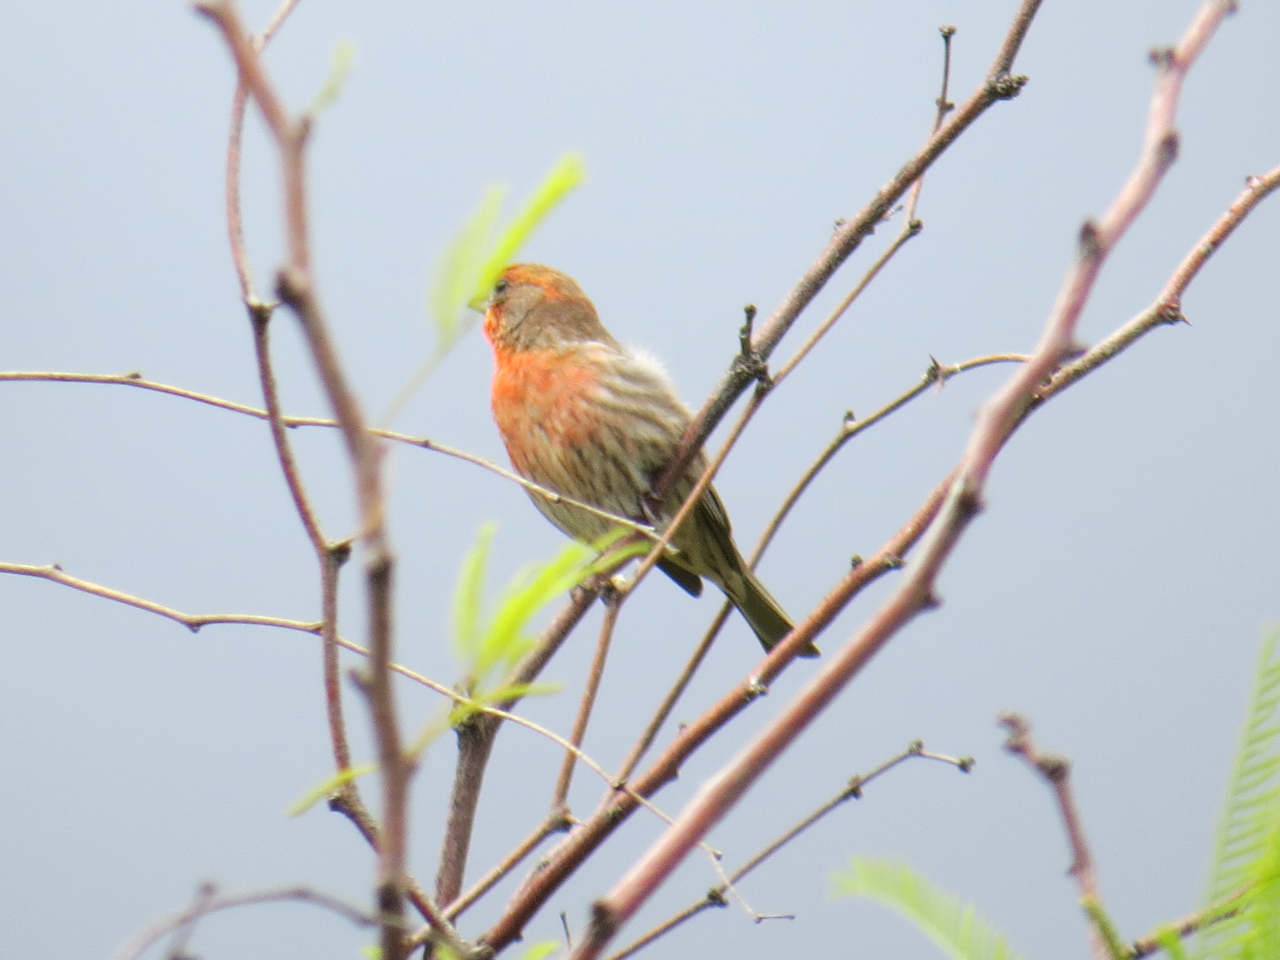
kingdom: Animalia
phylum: Chordata
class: Aves
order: Passeriformes
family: Fringillidae
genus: Haemorhous
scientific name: Haemorhous mexicanus
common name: House finch
